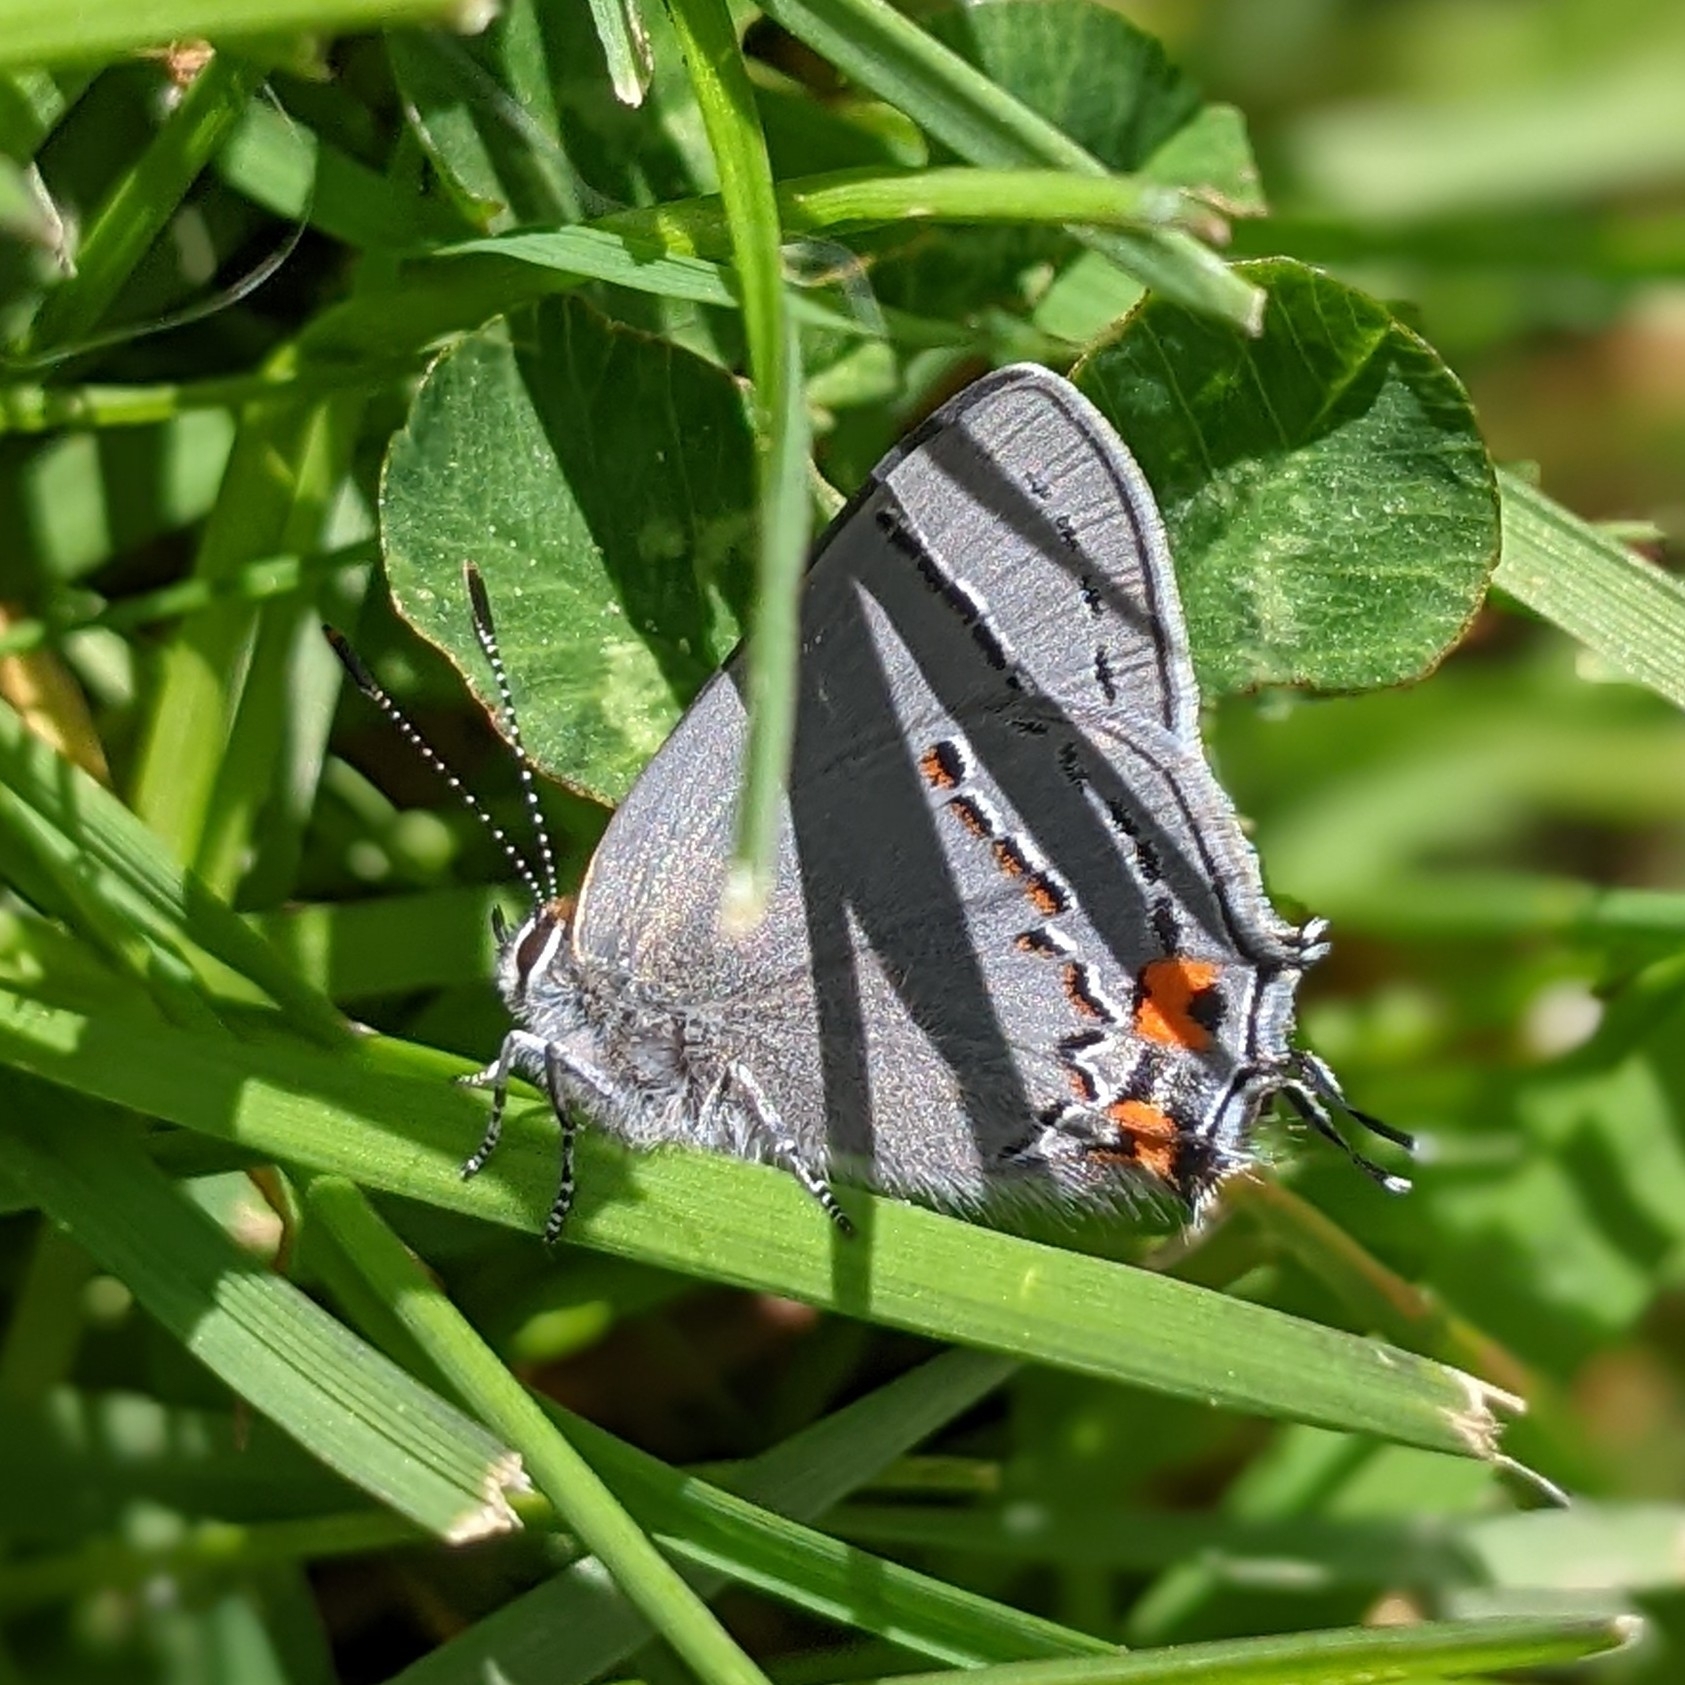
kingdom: Animalia
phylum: Arthropoda
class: Insecta
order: Lepidoptera
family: Lycaenidae
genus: Strymon
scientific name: Strymon melinus
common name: Gray hairstreak
